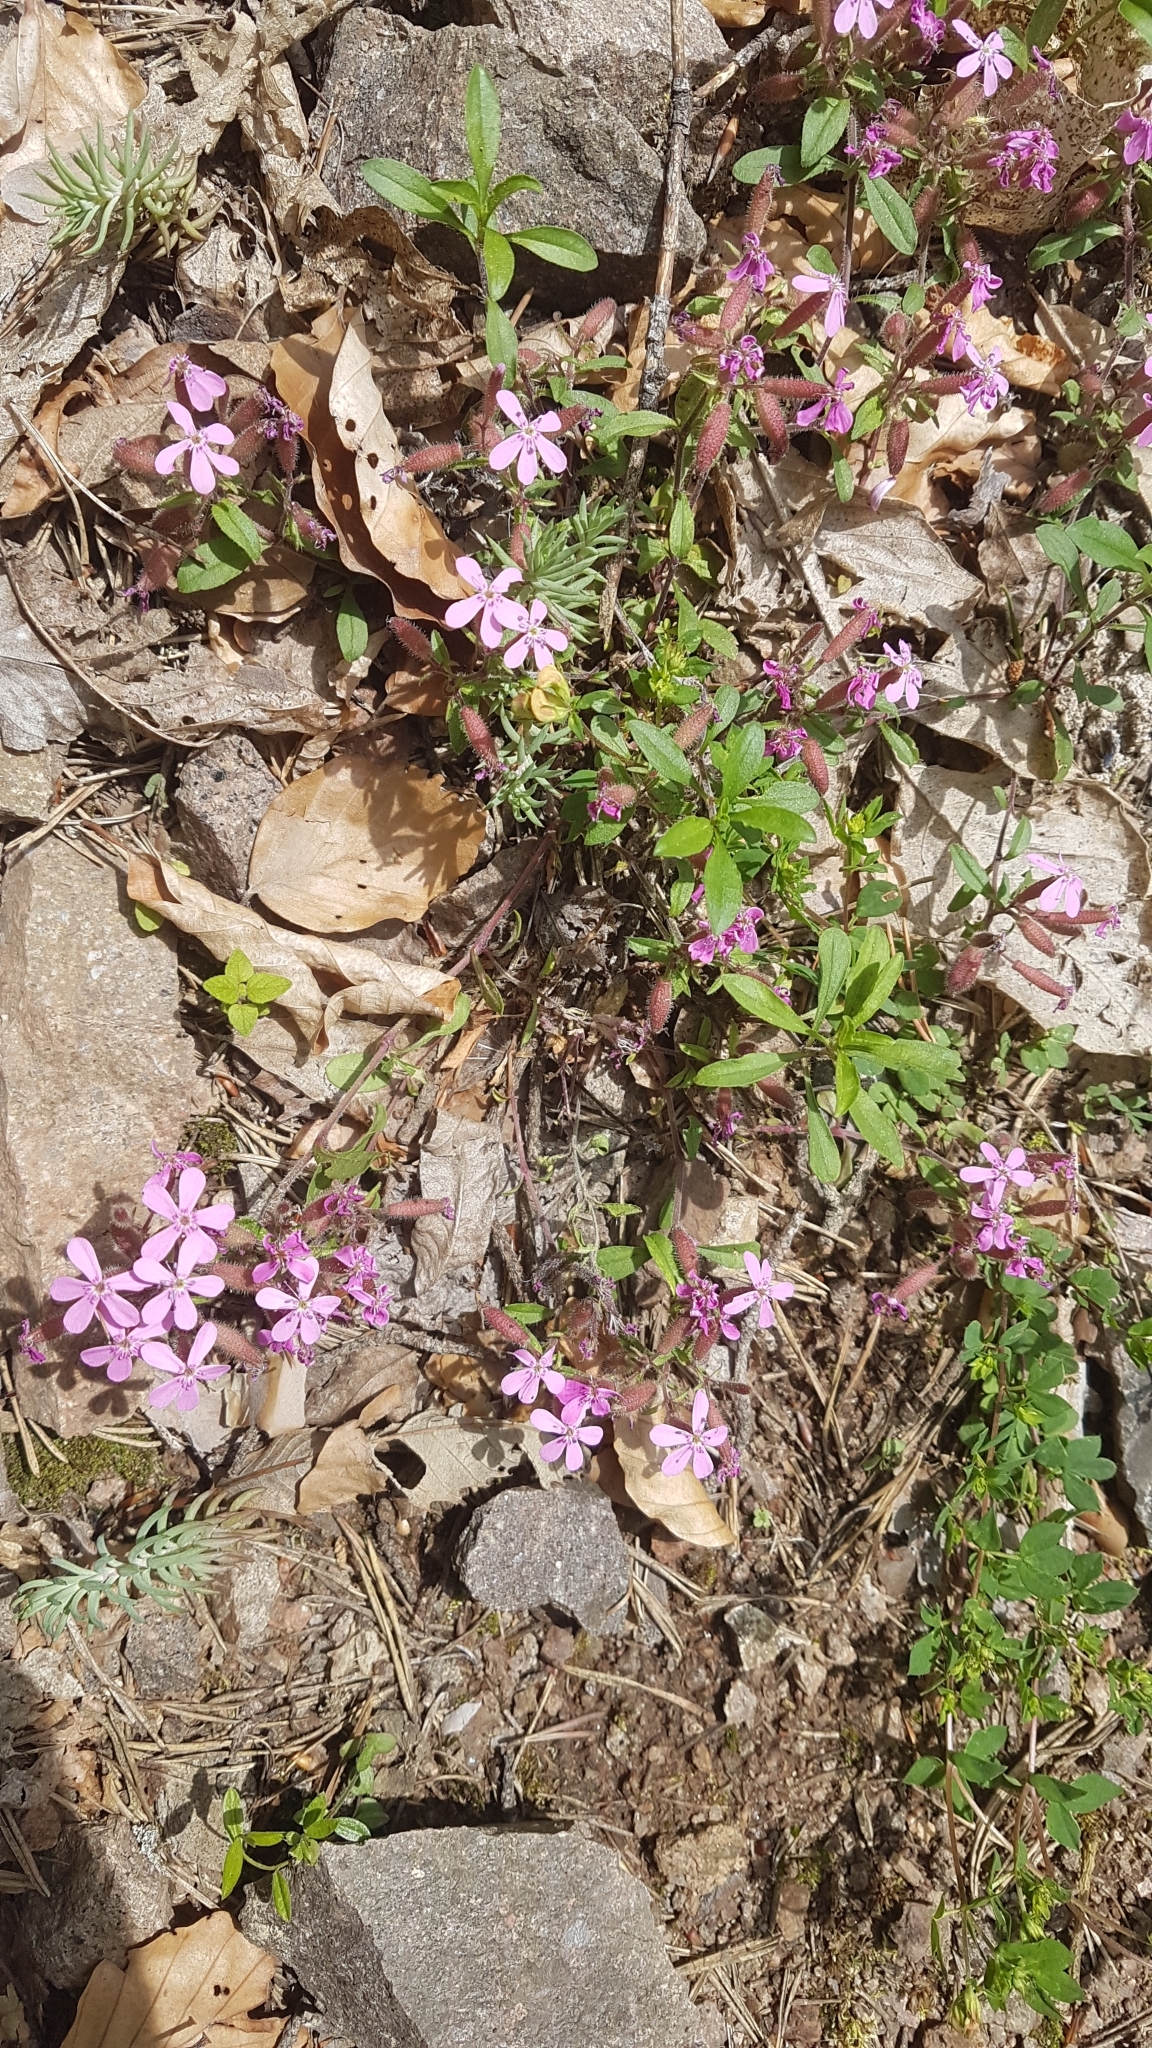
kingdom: Plantae
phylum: Tracheophyta
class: Magnoliopsida
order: Caryophyllales
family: Caryophyllaceae
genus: Saponaria
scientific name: Saponaria ocymoides
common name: Rock soapwort
